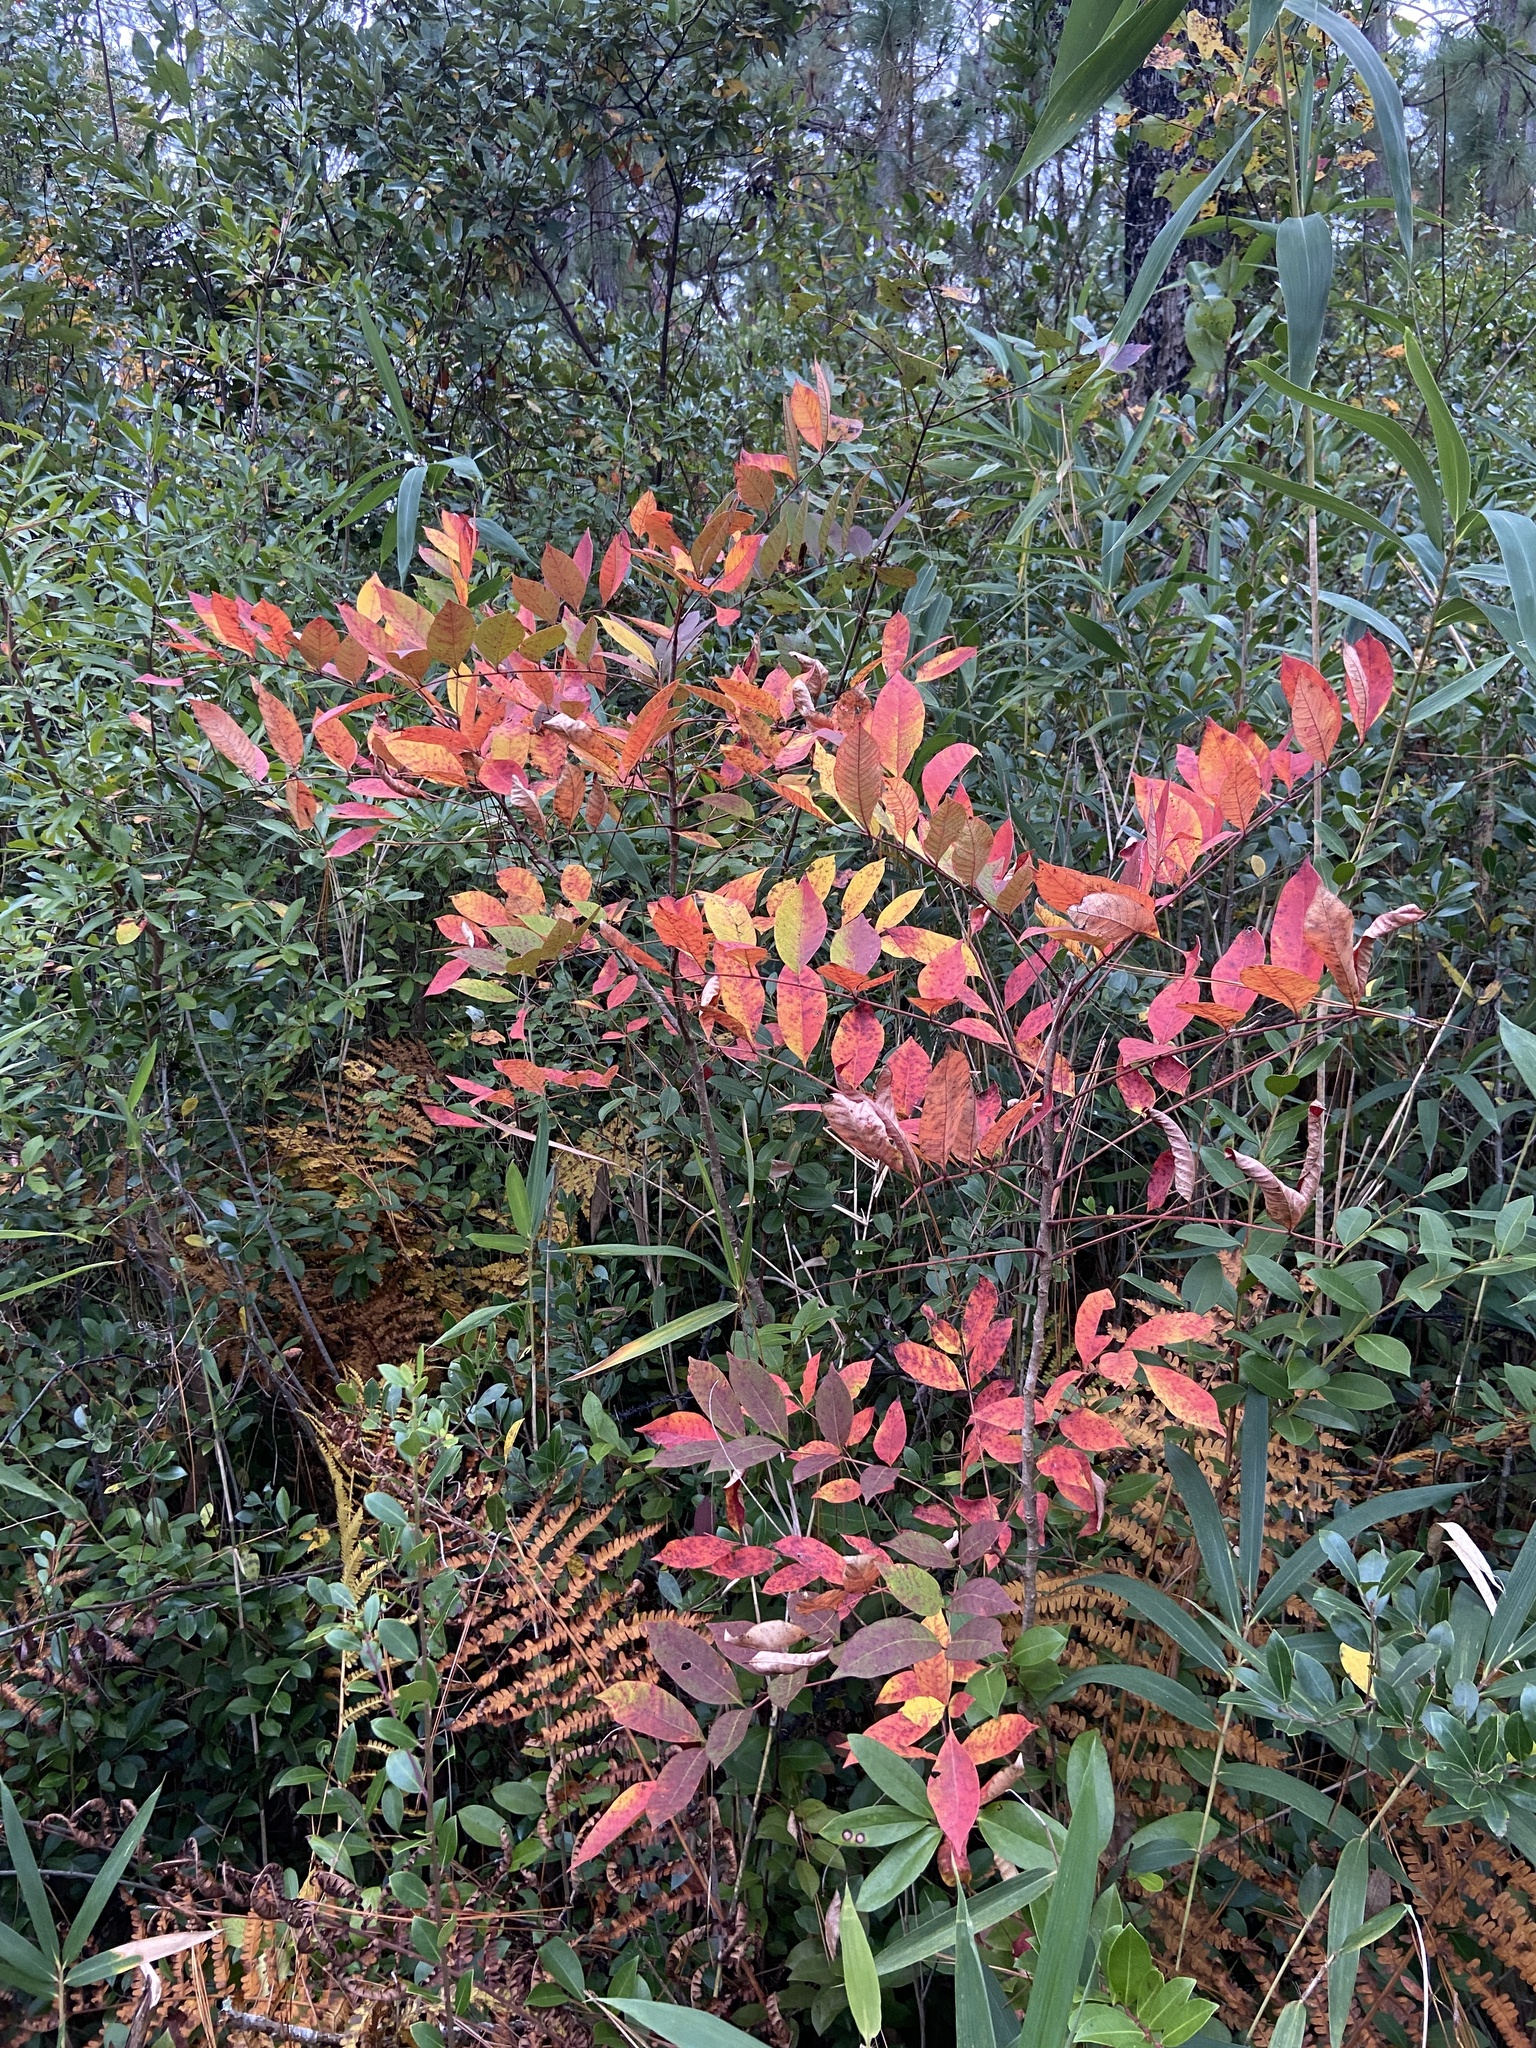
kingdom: Plantae
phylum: Tracheophyta
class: Magnoliopsida
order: Sapindales
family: Anacardiaceae
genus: Toxicodendron
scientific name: Toxicodendron vernix
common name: Poison sumac
